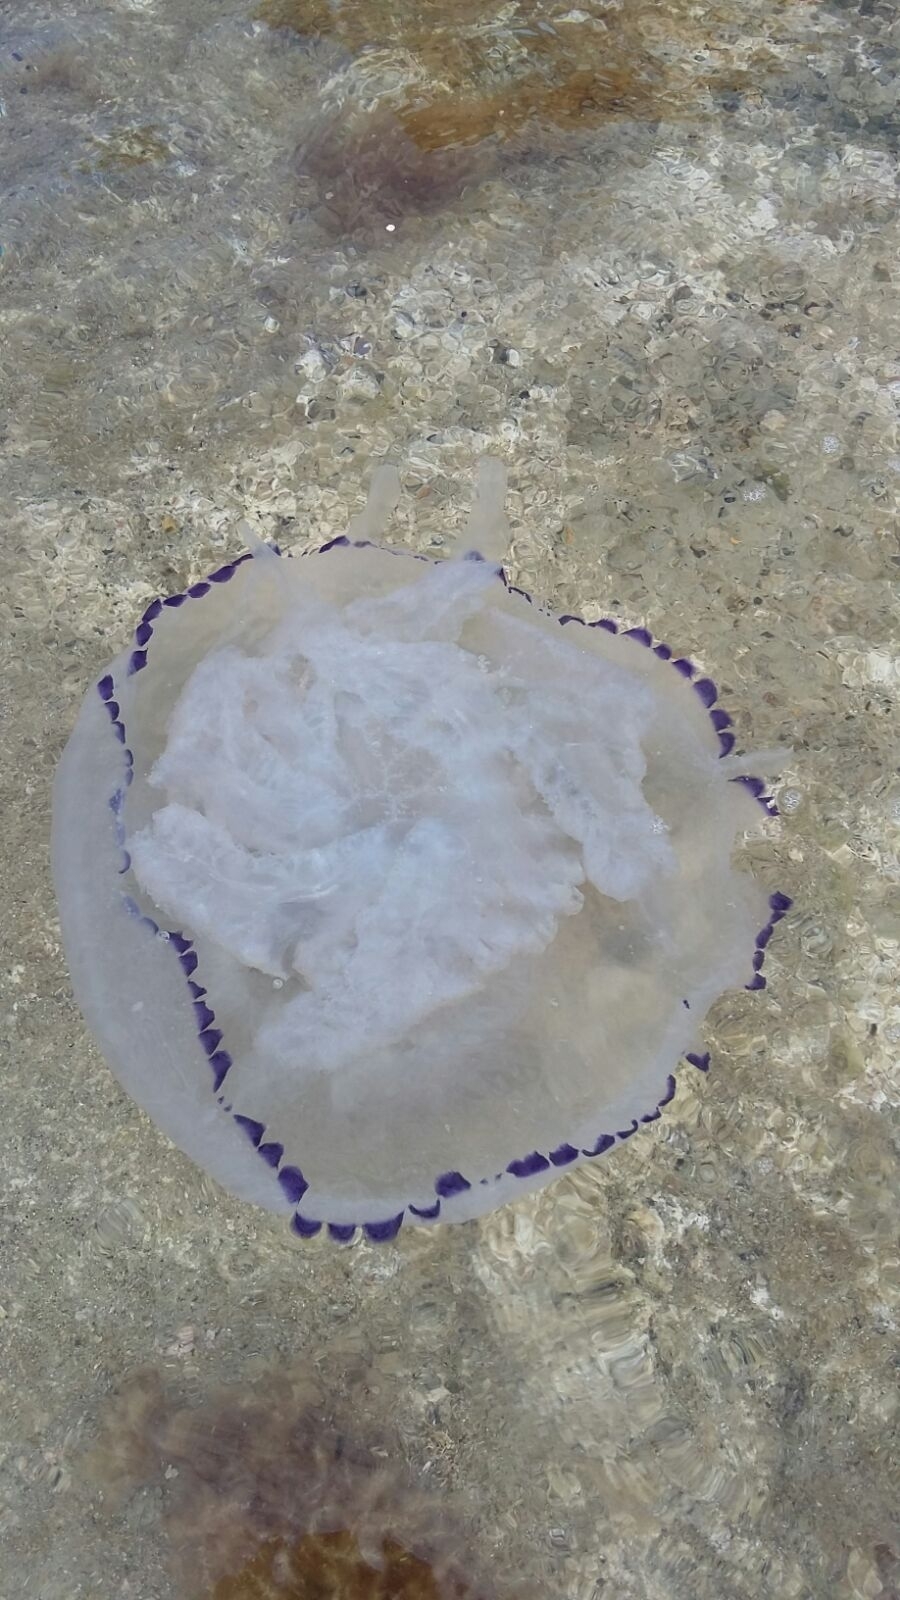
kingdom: Animalia
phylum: Cnidaria
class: Scyphozoa
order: Rhizostomeae
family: Rhizostomatidae
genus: Rhizostoma
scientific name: Rhizostoma pulmo
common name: Barrel jellyfish
